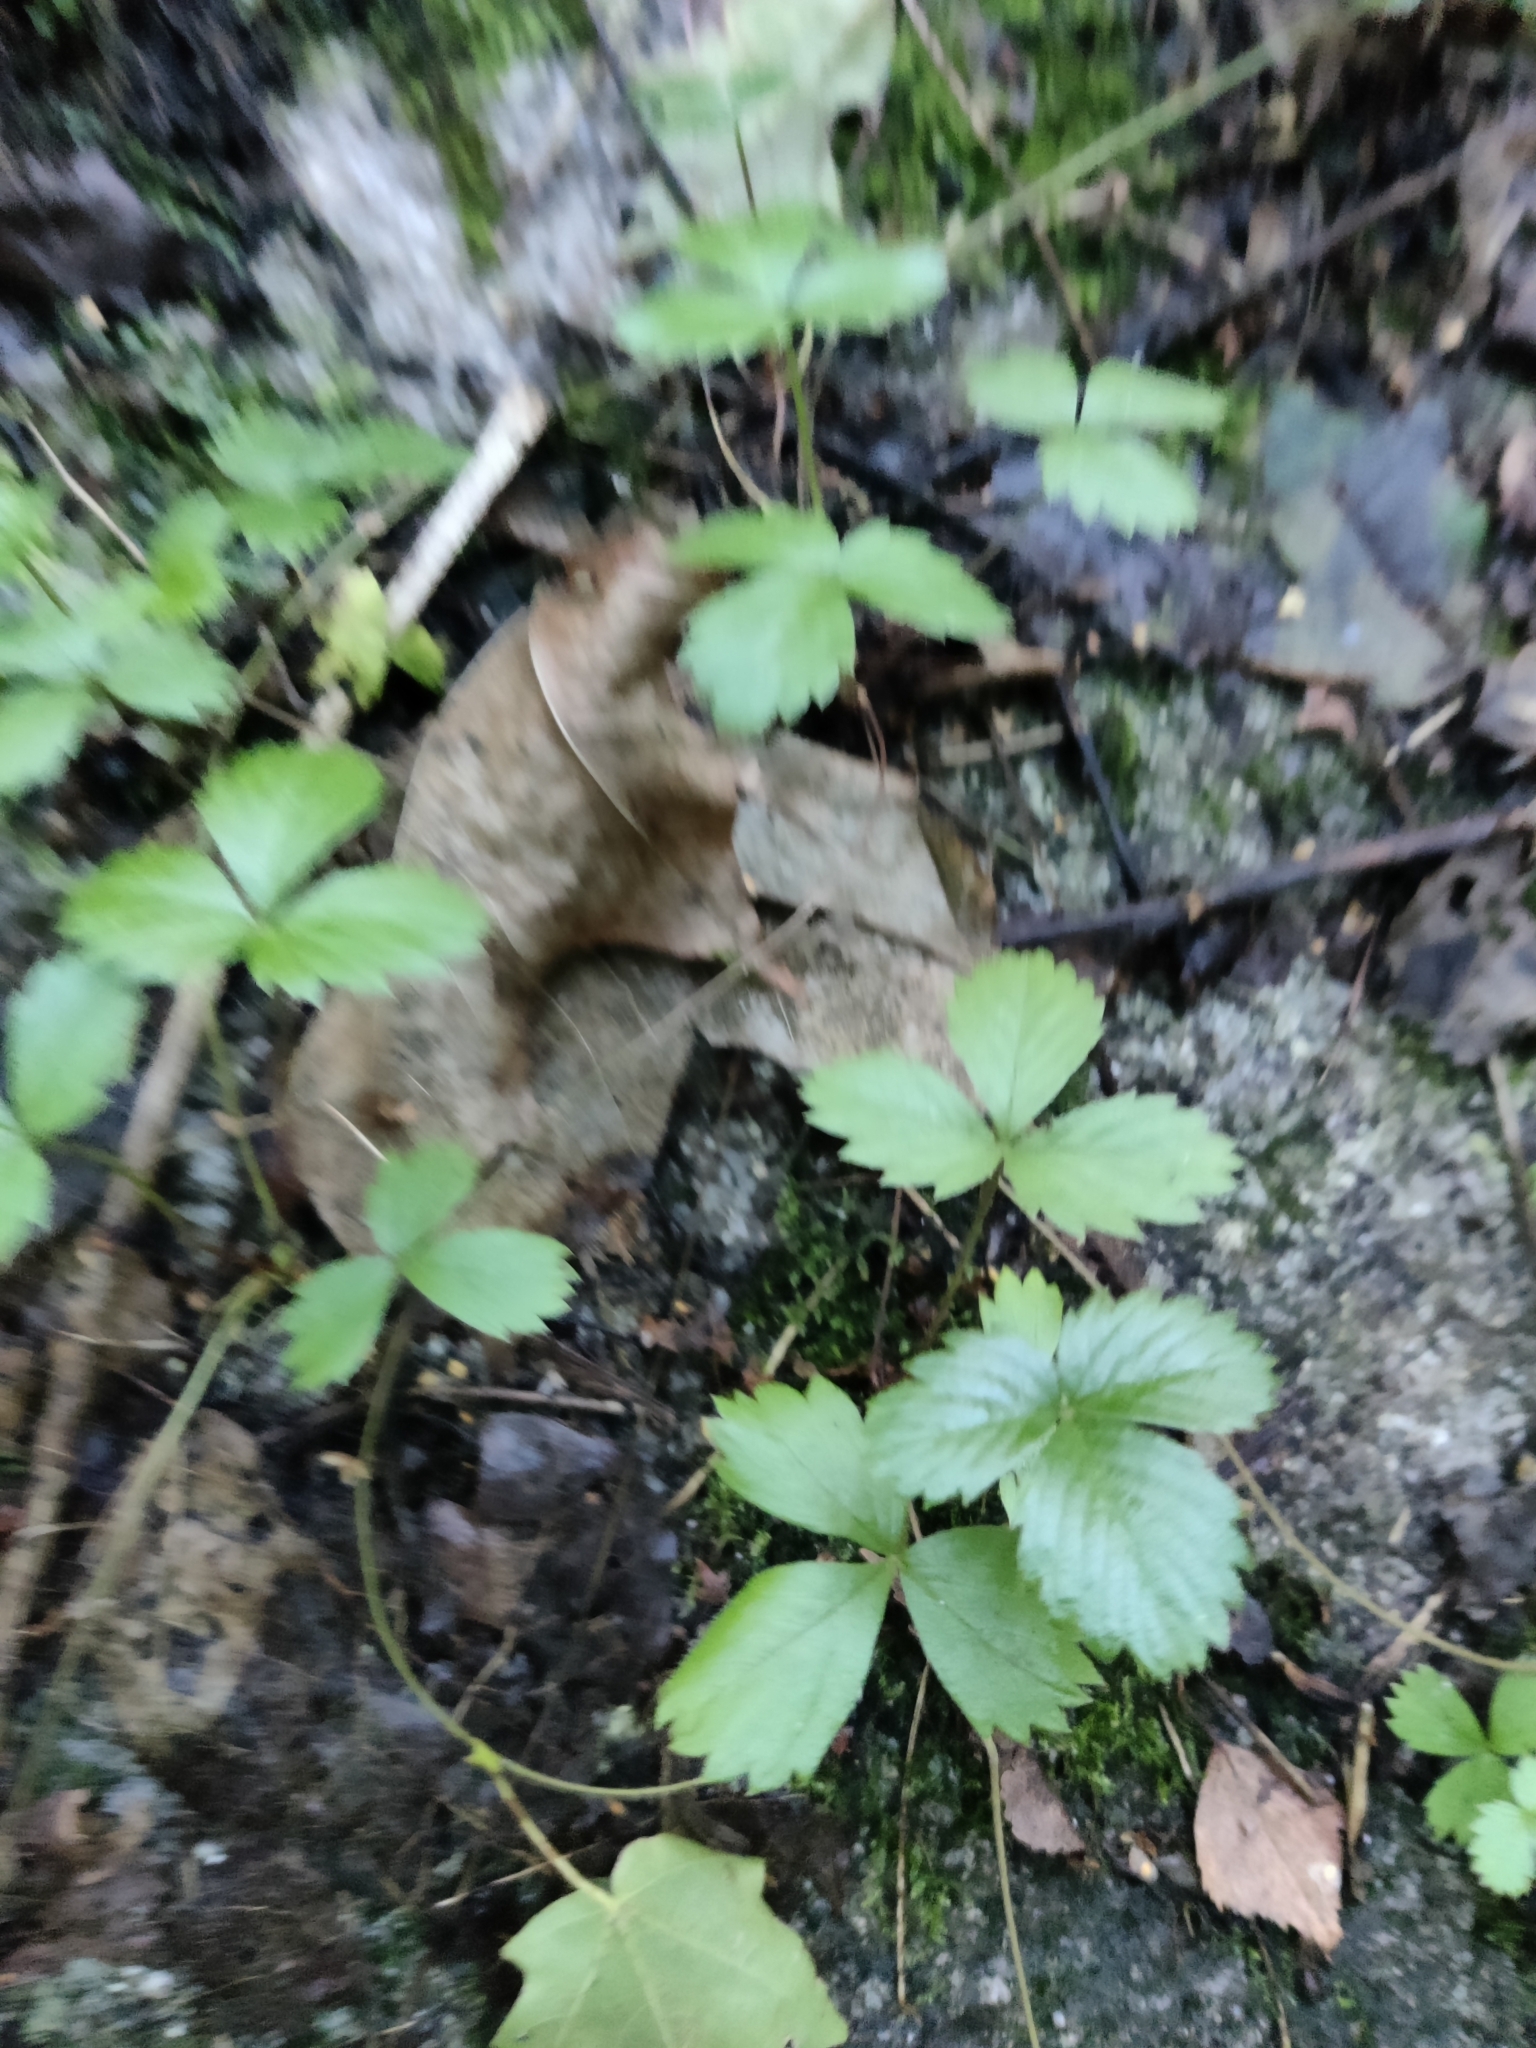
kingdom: Plantae
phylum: Tracheophyta
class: Magnoliopsida
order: Rosales
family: Rosaceae
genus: Fragaria
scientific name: Fragaria vesca
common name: Wild strawberry
